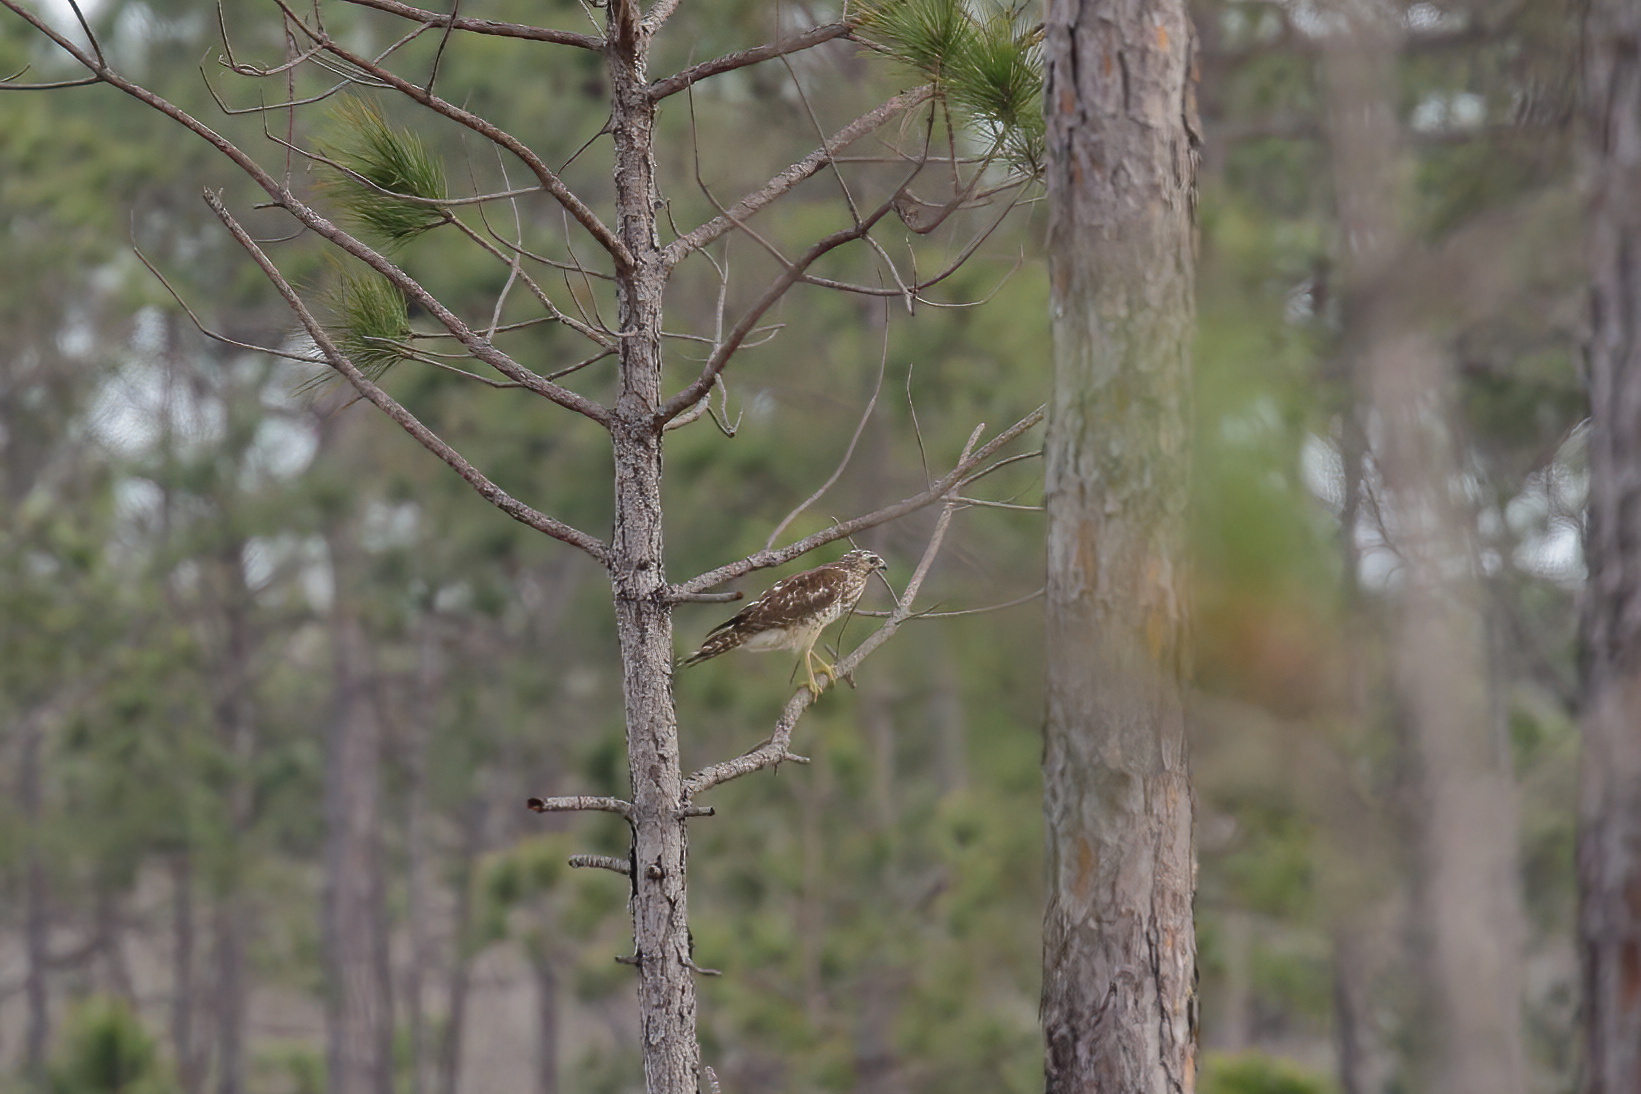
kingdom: Animalia
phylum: Chordata
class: Aves
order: Accipitriformes
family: Accipitridae
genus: Buteo
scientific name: Buteo lineatus
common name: Red-shouldered hawk
